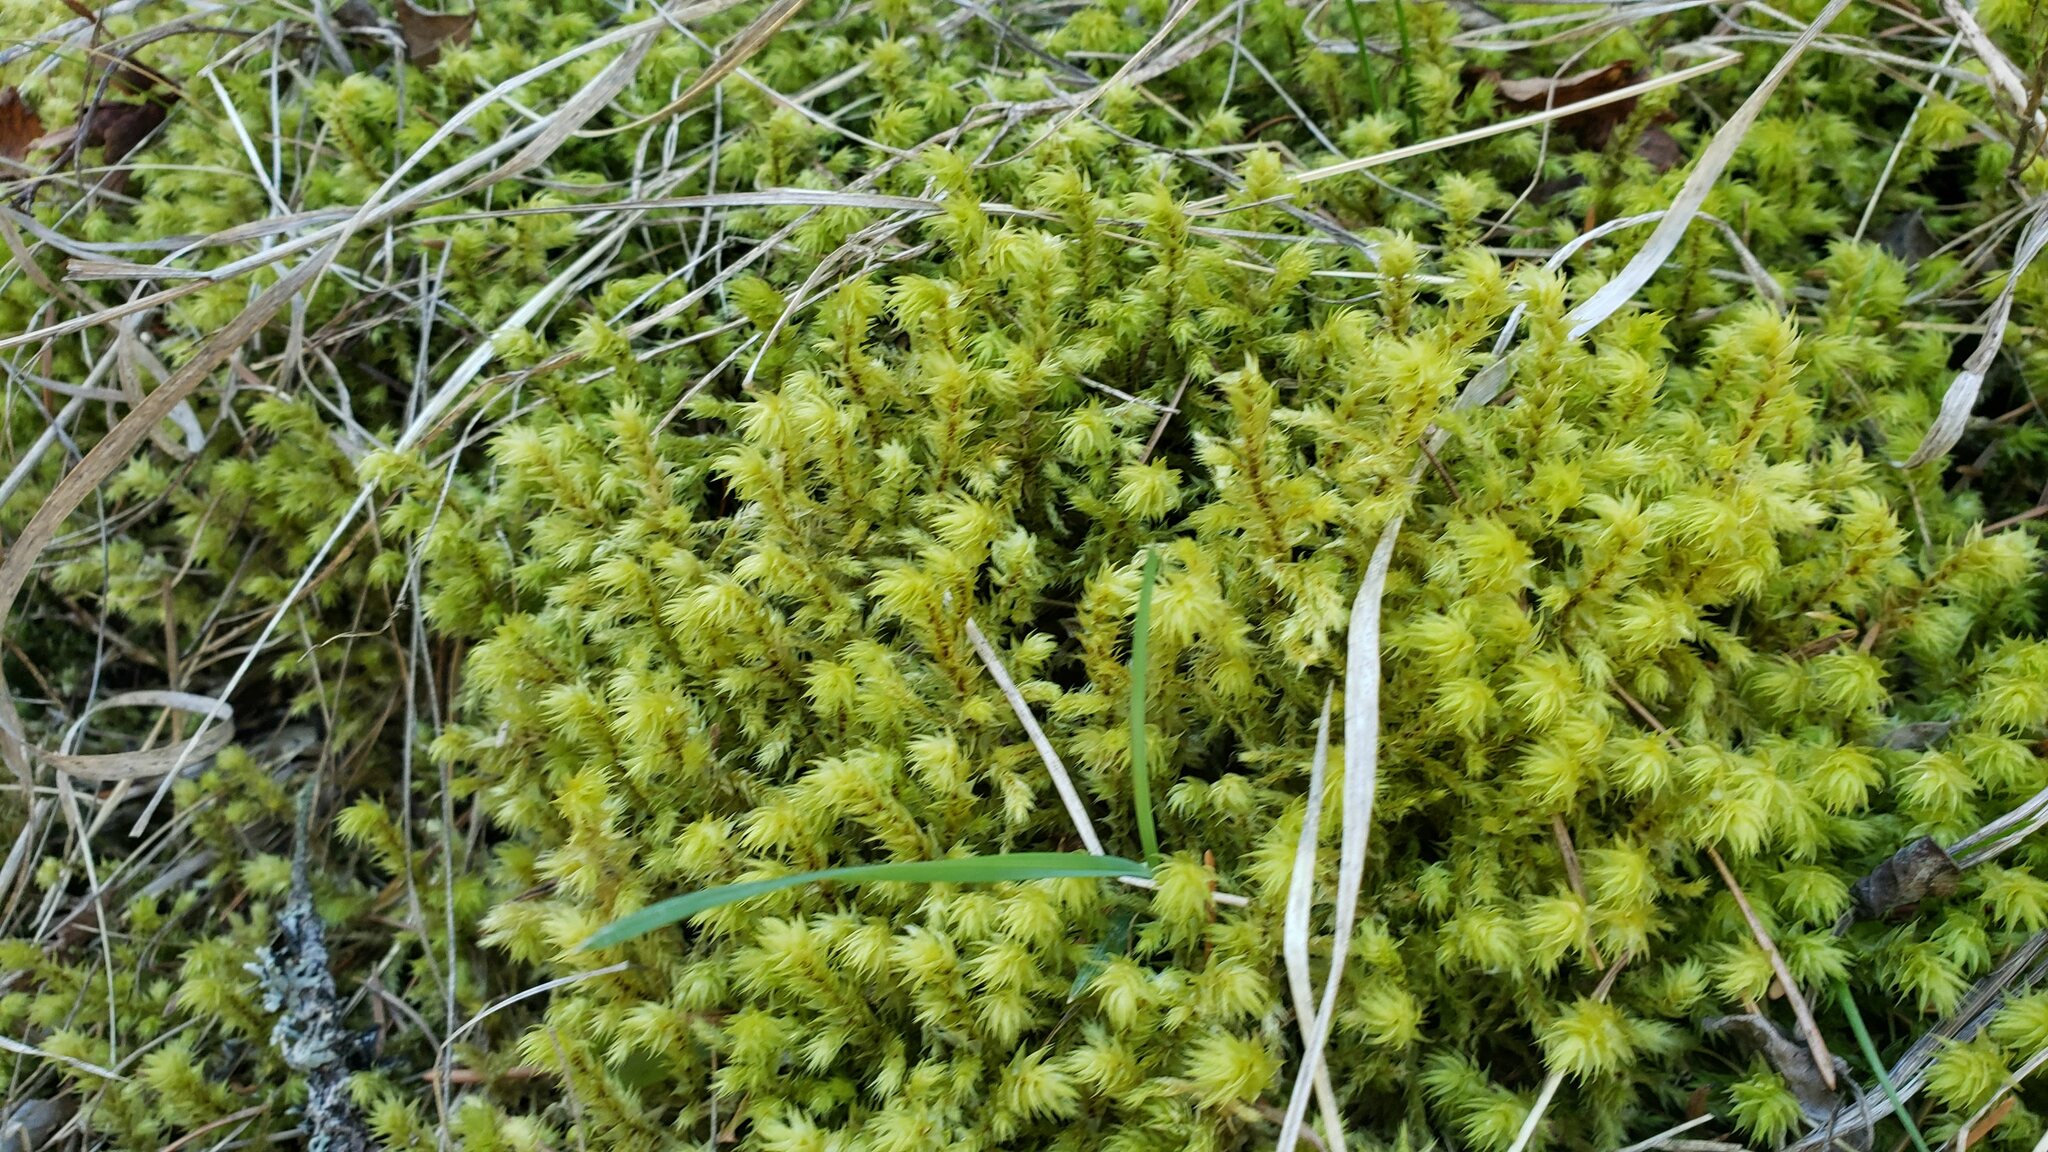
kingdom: Plantae
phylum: Bryophyta
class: Bryopsida
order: Hypnales
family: Hylocomiaceae
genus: Hylocomiadelphus
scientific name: Hylocomiadelphus triquetrus
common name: Rough goose neck moss
